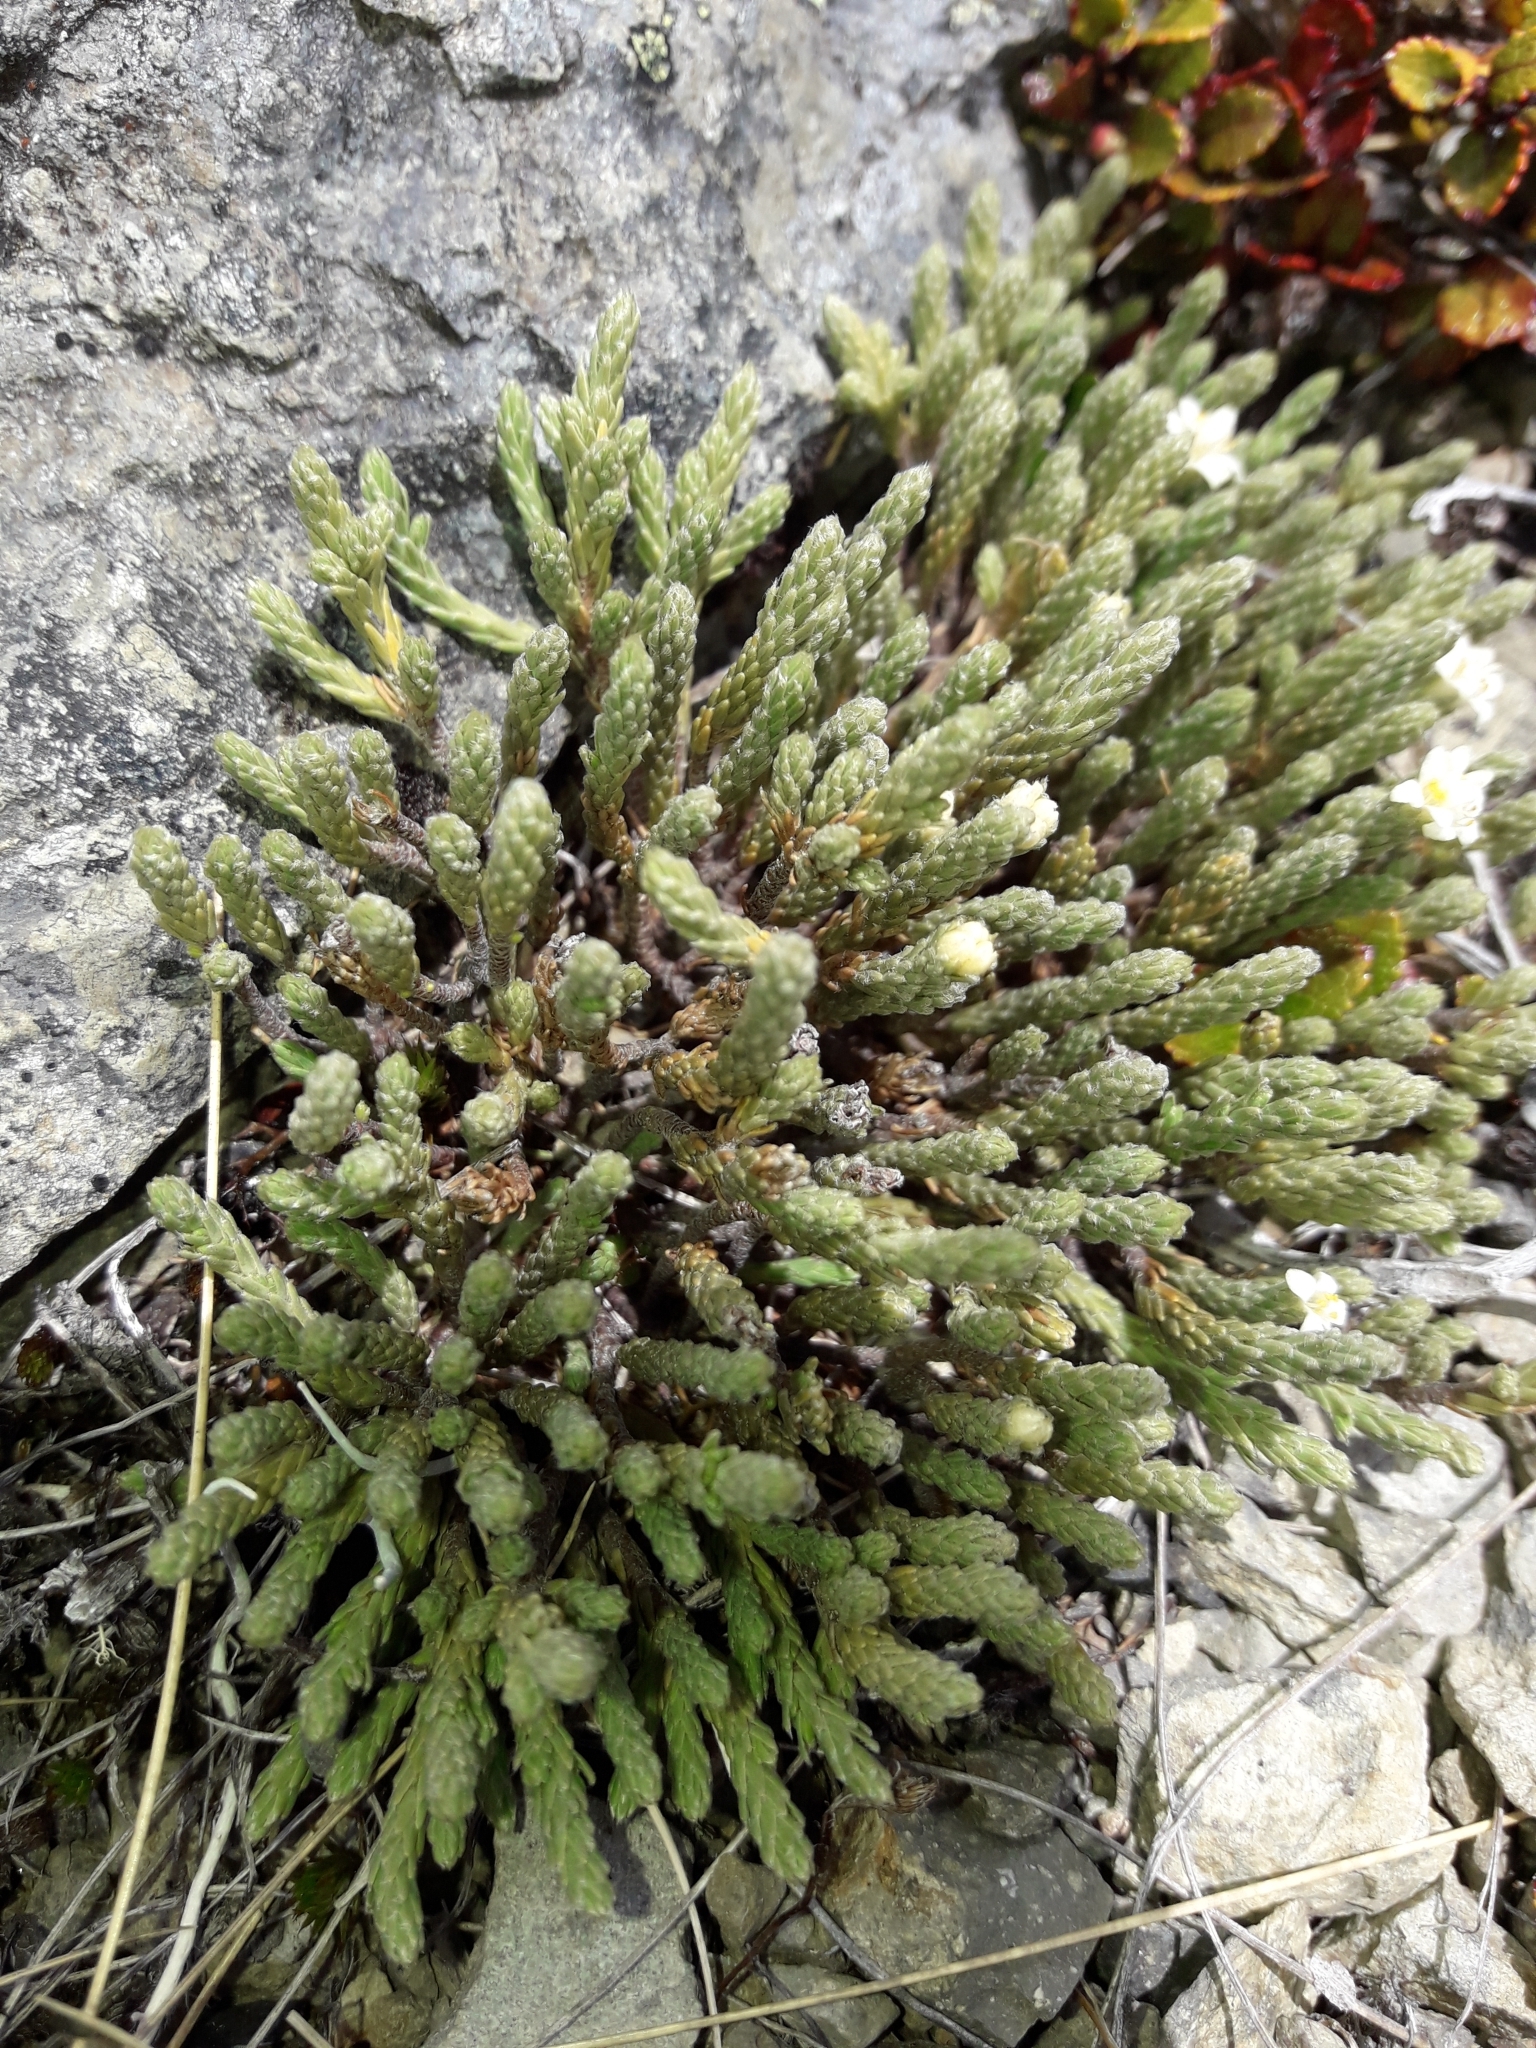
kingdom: Plantae
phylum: Tracheophyta
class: Magnoliopsida
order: Malvales
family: Thymelaeaceae
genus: Kelleria
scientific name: Kelleria villosa
